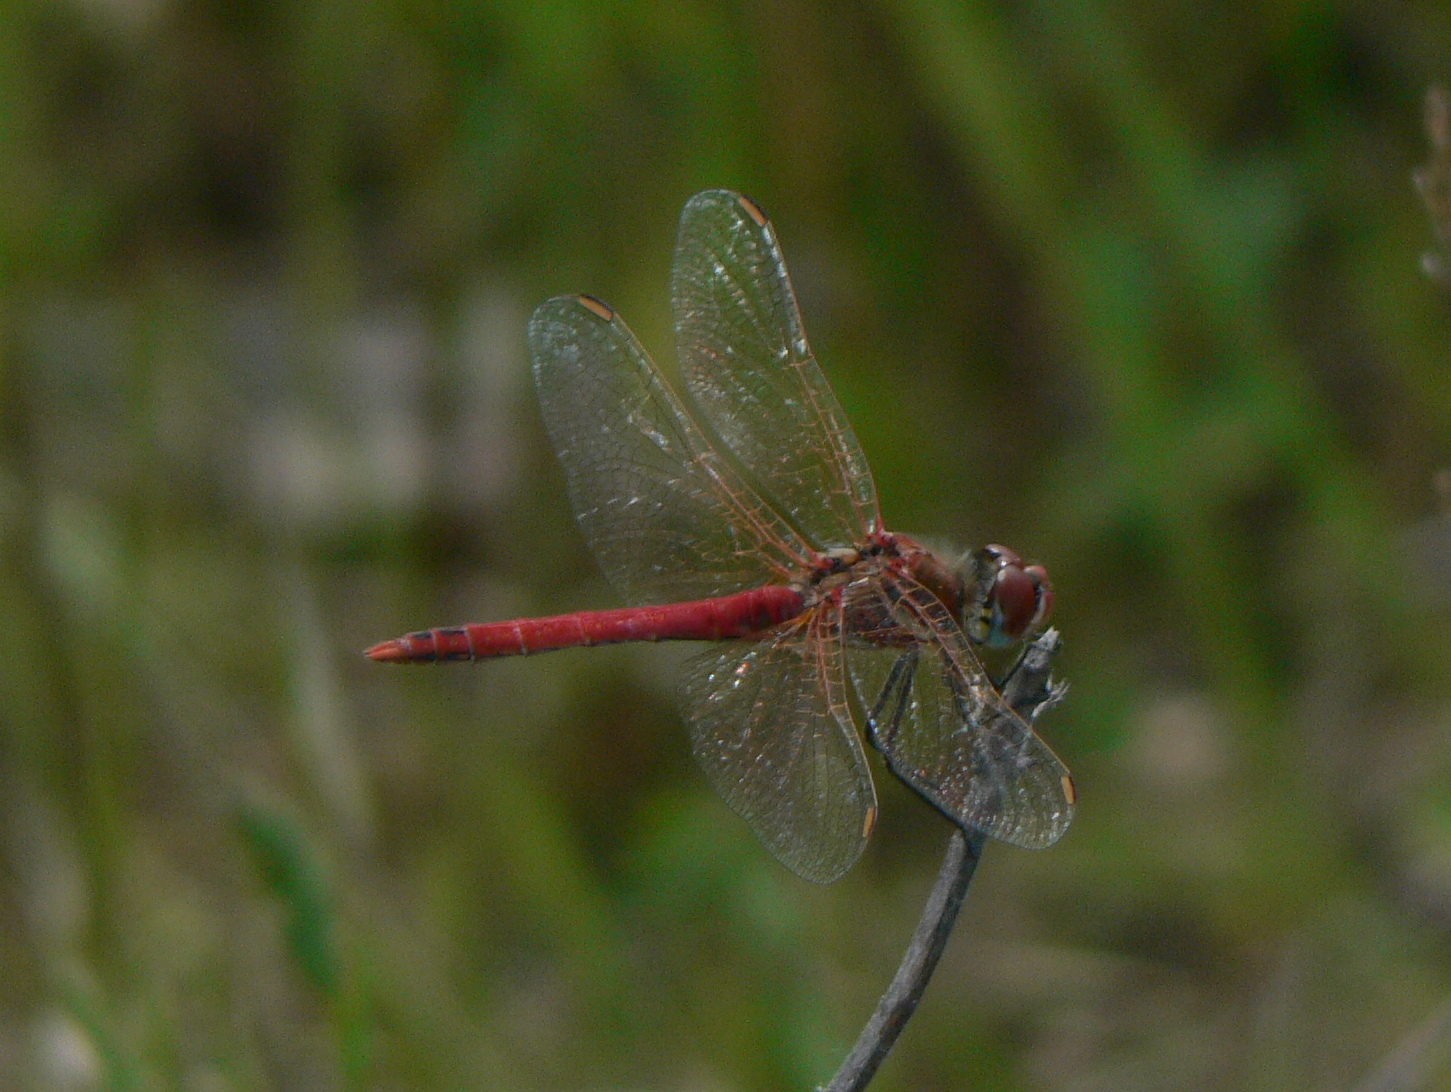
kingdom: Animalia
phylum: Arthropoda
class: Insecta
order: Odonata
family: Libellulidae
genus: Sympetrum
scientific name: Sympetrum fonscolombii
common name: Red-veined darter
